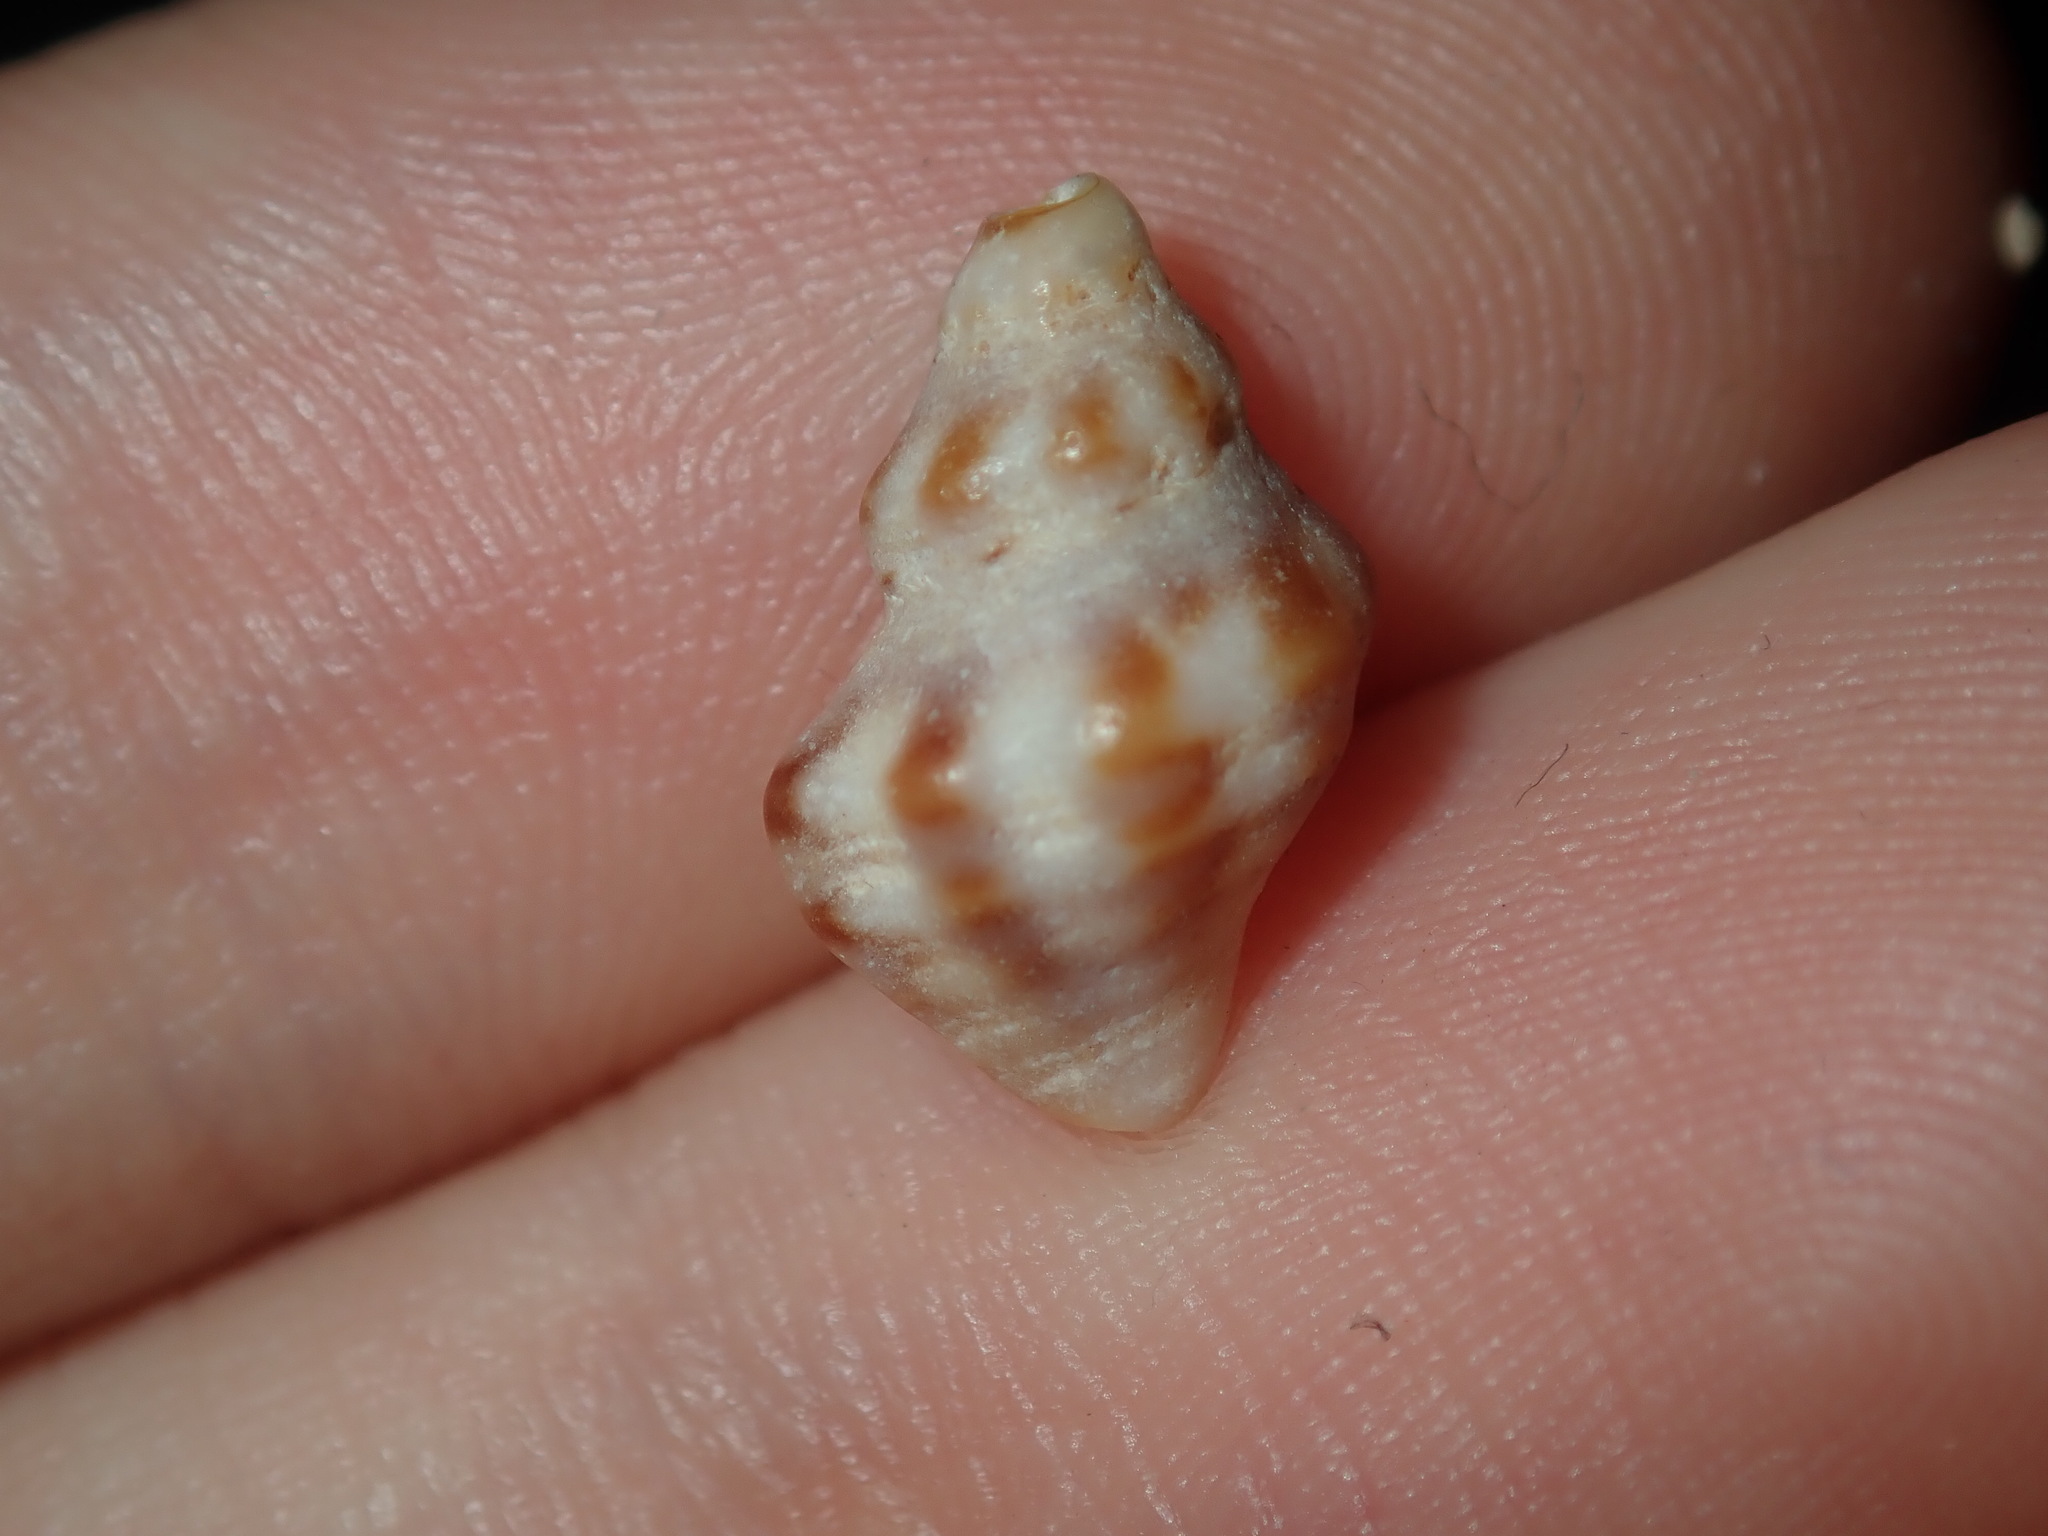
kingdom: Animalia
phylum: Mollusca
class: Gastropoda
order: Neogastropoda
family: Muricidae
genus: Phycothais
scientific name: Phycothais reticulata
